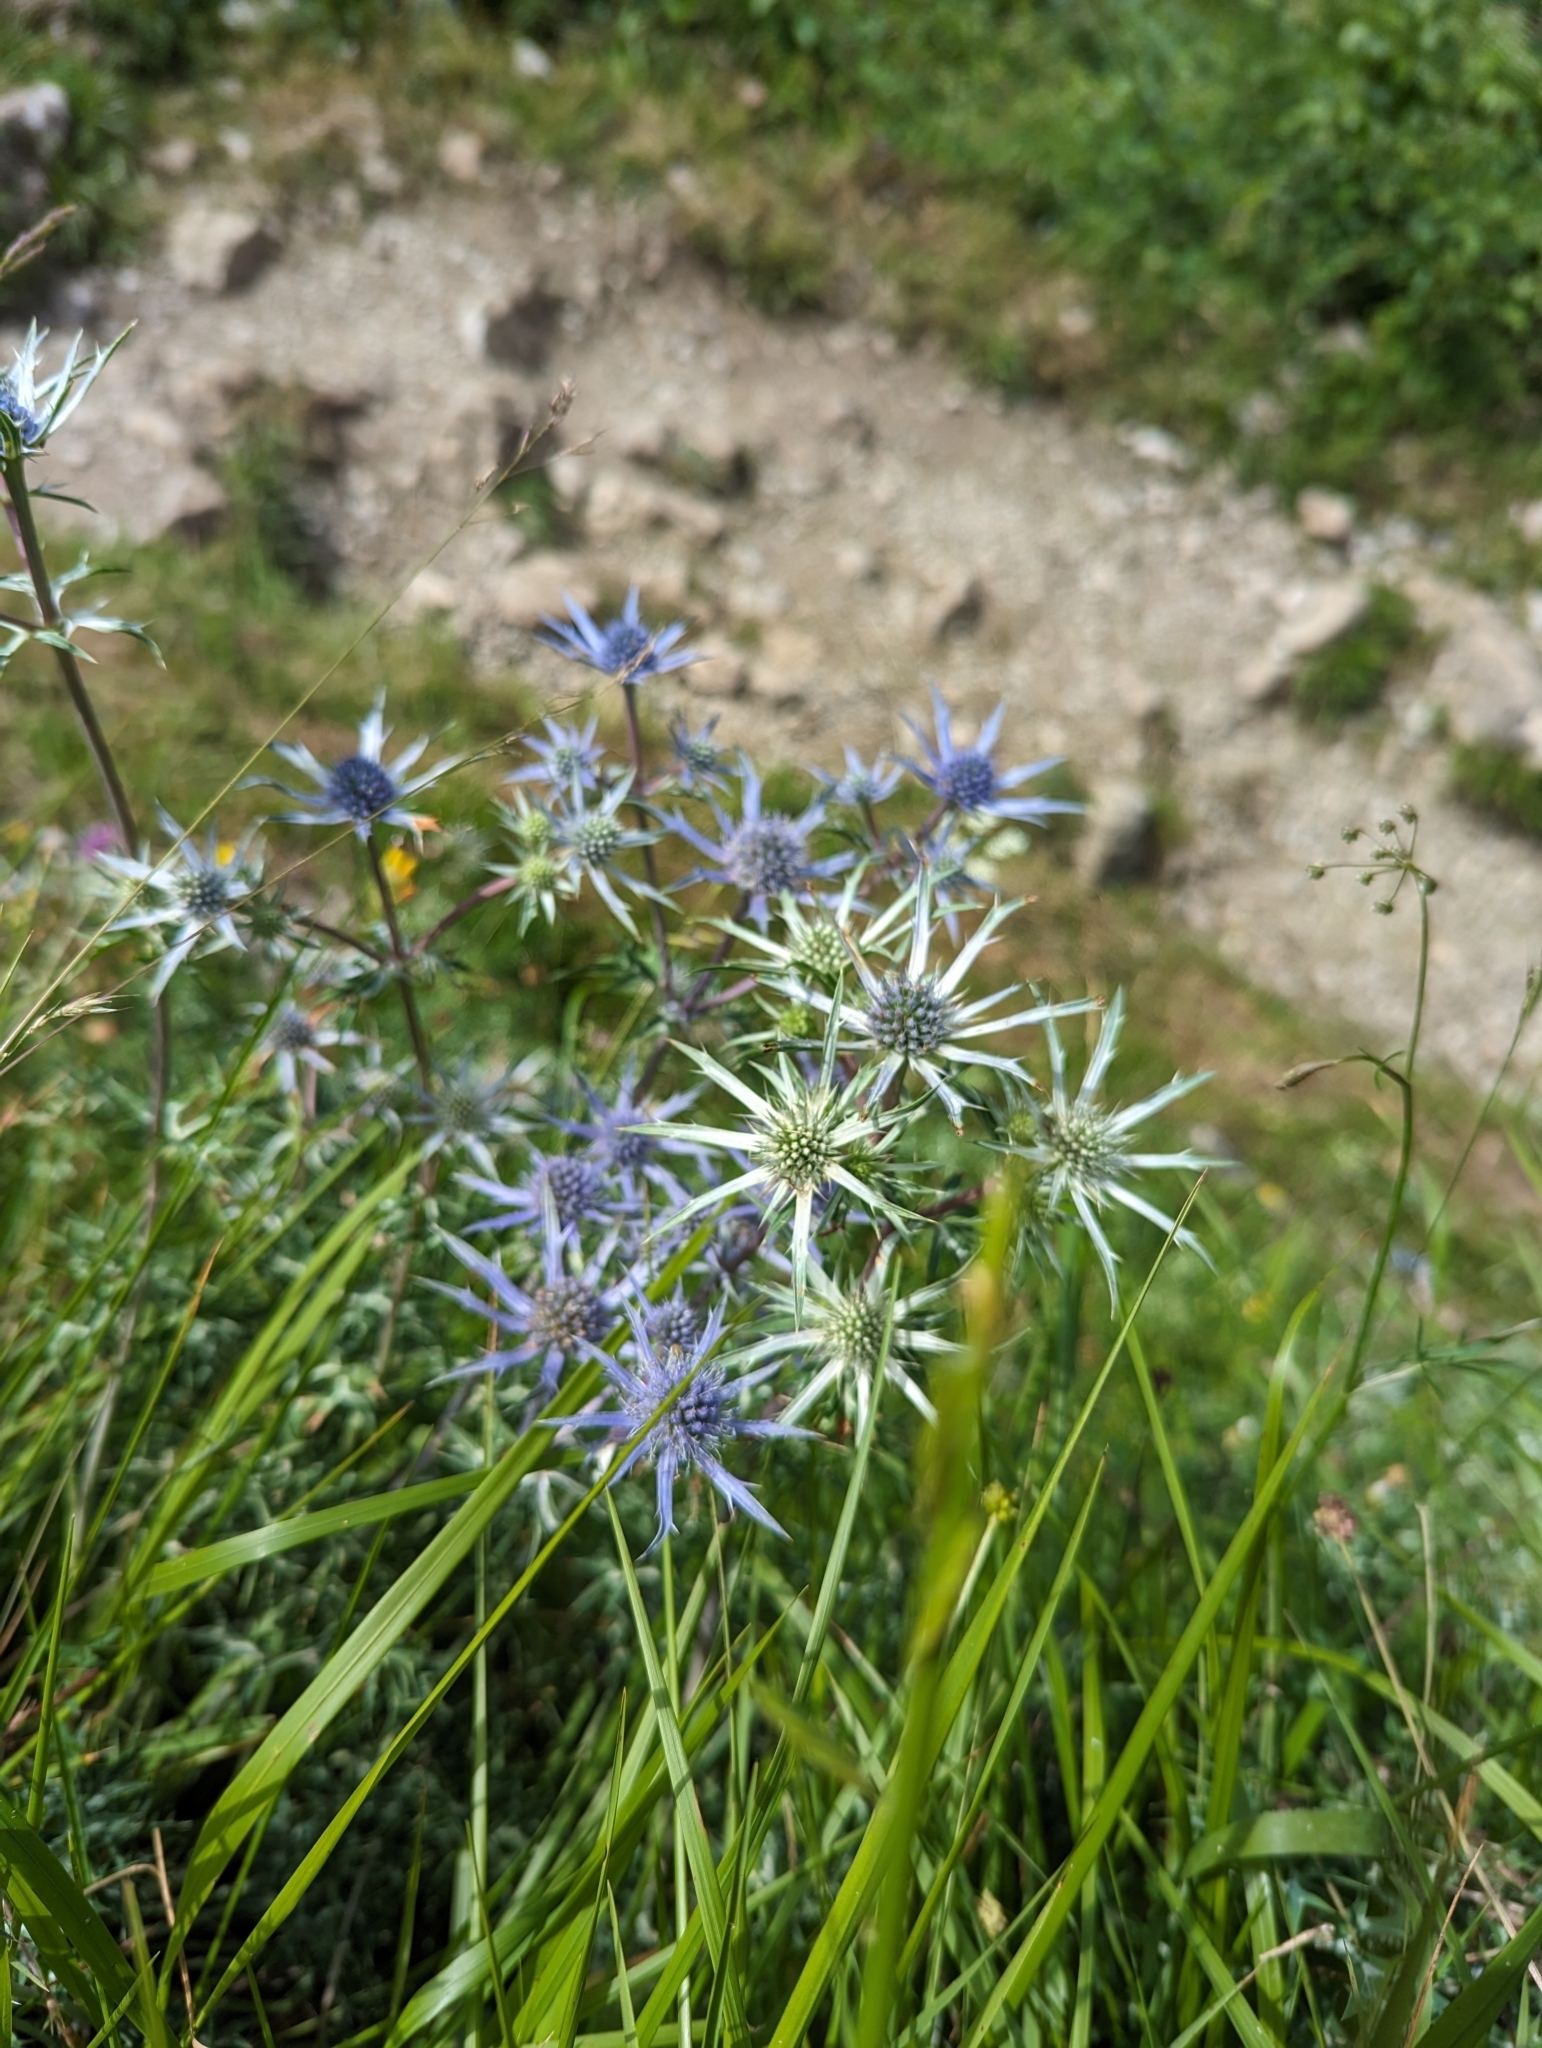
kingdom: Plantae
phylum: Tracheophyta
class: Magnoliopsida
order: Apiales
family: Apiaceae
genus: Eryngium
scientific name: Eryngium bourgatii
